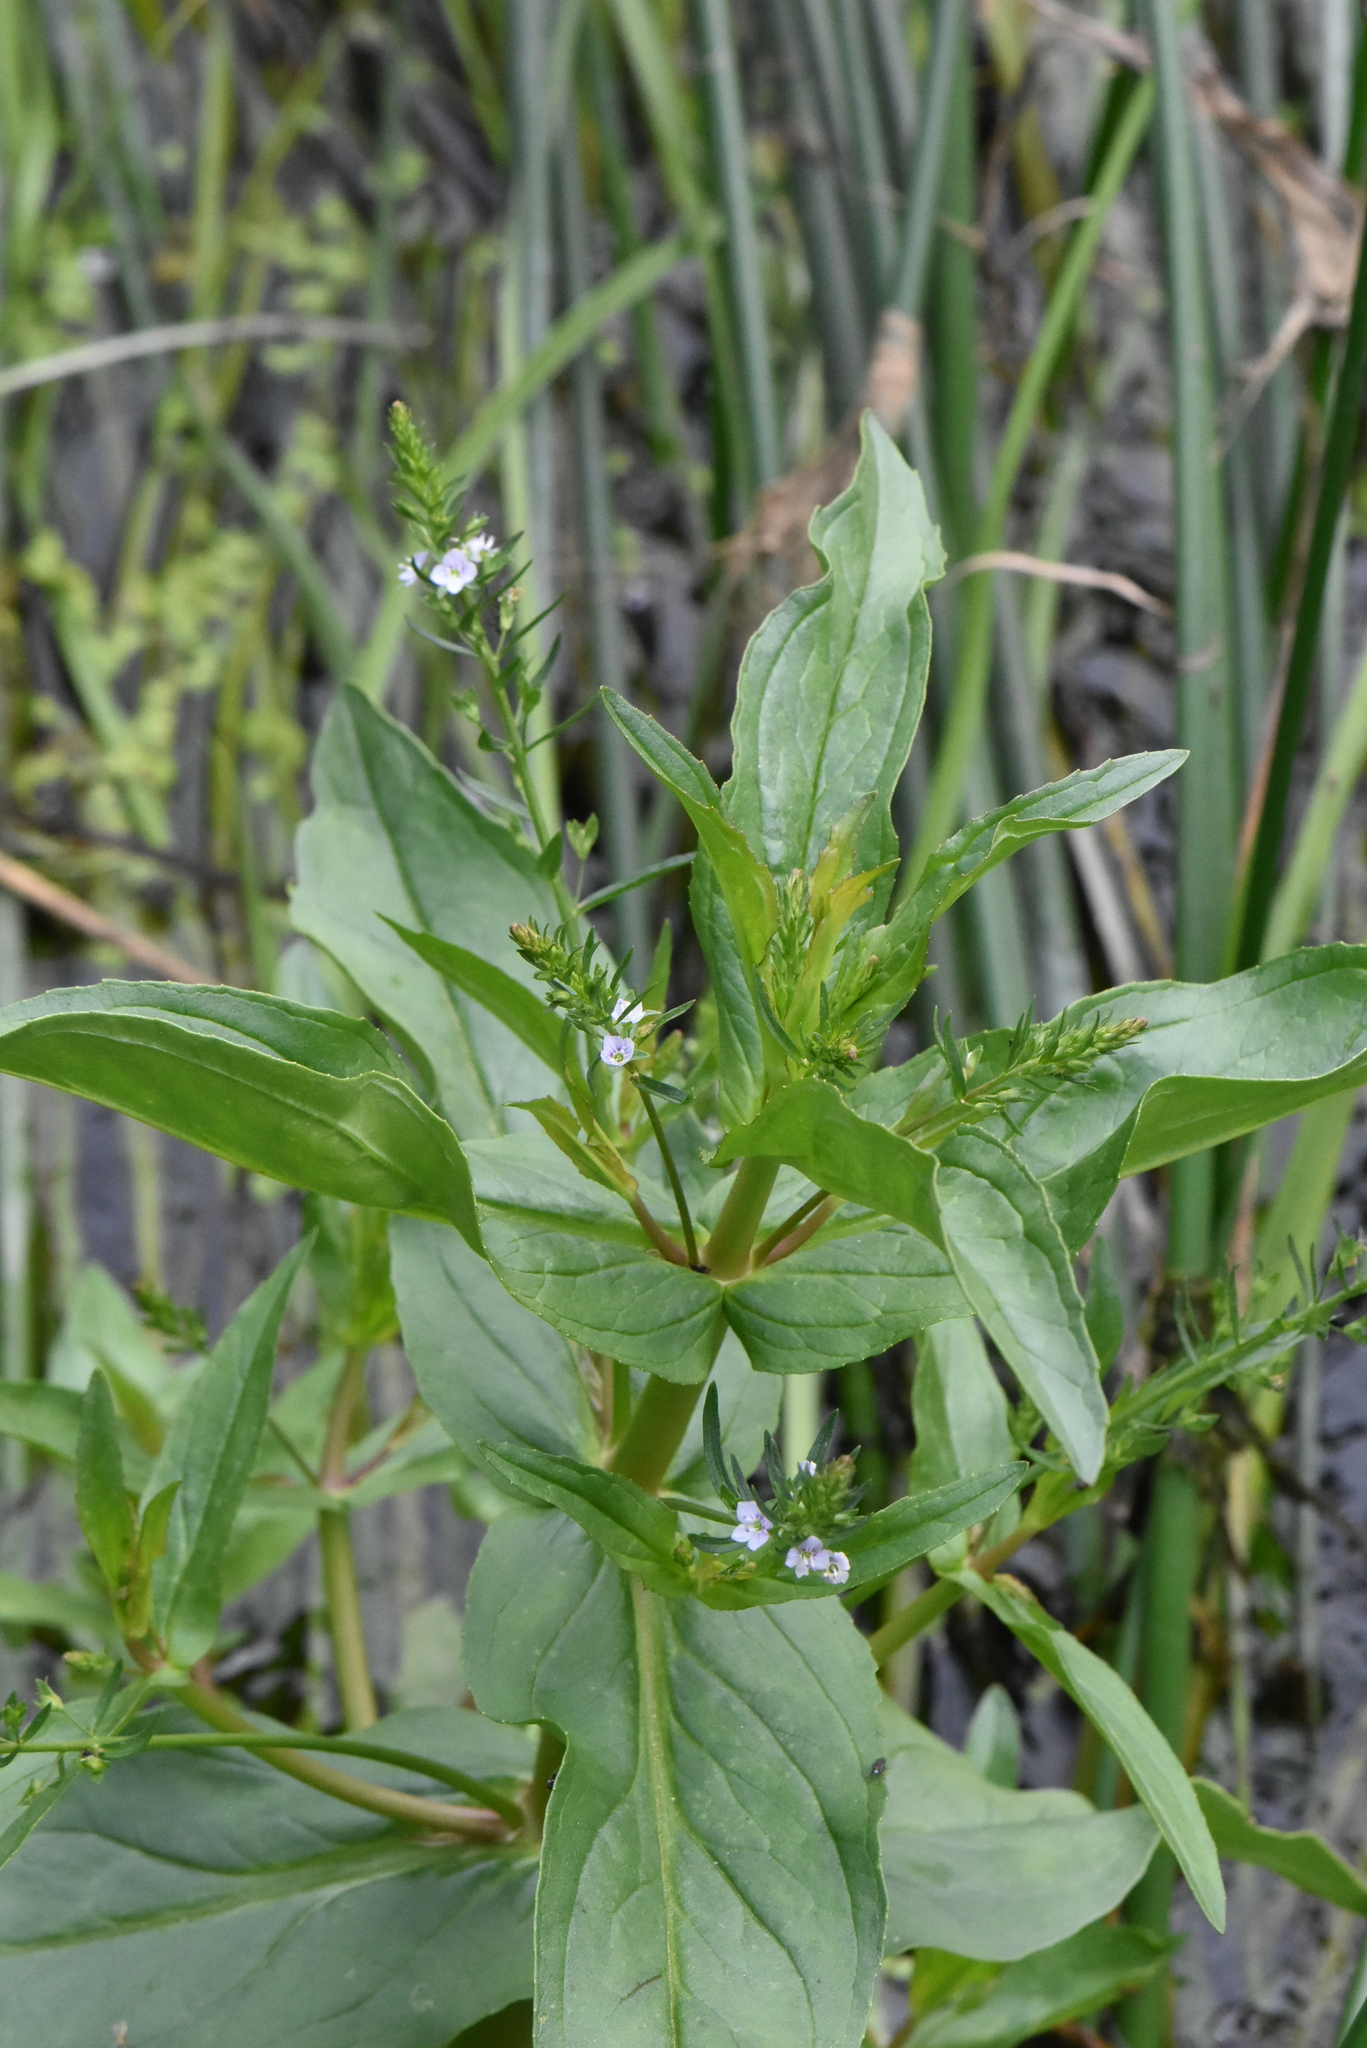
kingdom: Plantae
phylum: Tracheophyta
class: Magnoliopsida
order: Lamiales
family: Plantaginaceae
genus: Veronica
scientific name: Veronica anagallis-aquatica
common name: Water speedwell
